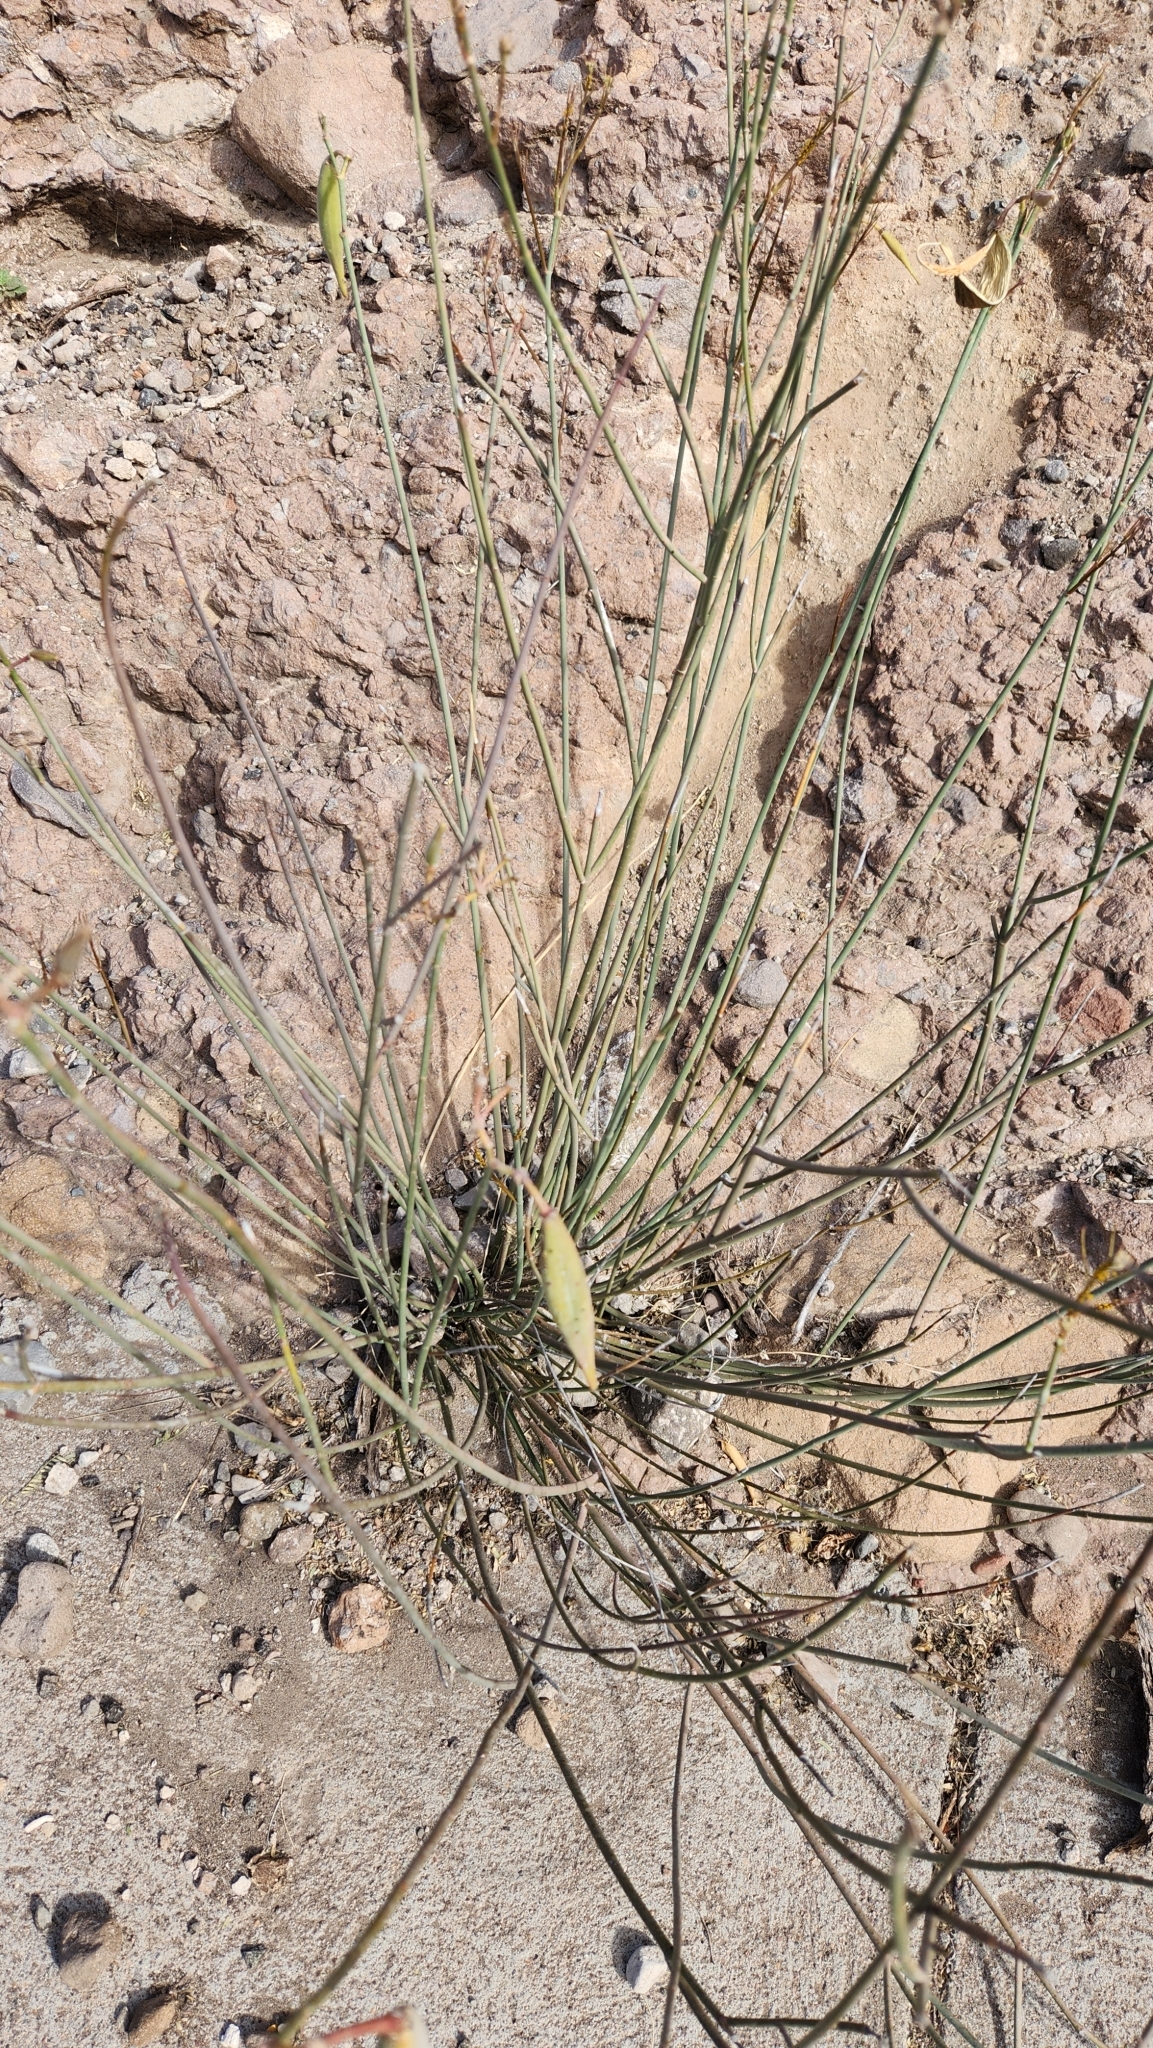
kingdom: Plantae
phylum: Tracheophyta
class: Magnoliopsida
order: Gentianales
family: Apocynaceae
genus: Asclepias
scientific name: Asclepias subulata
